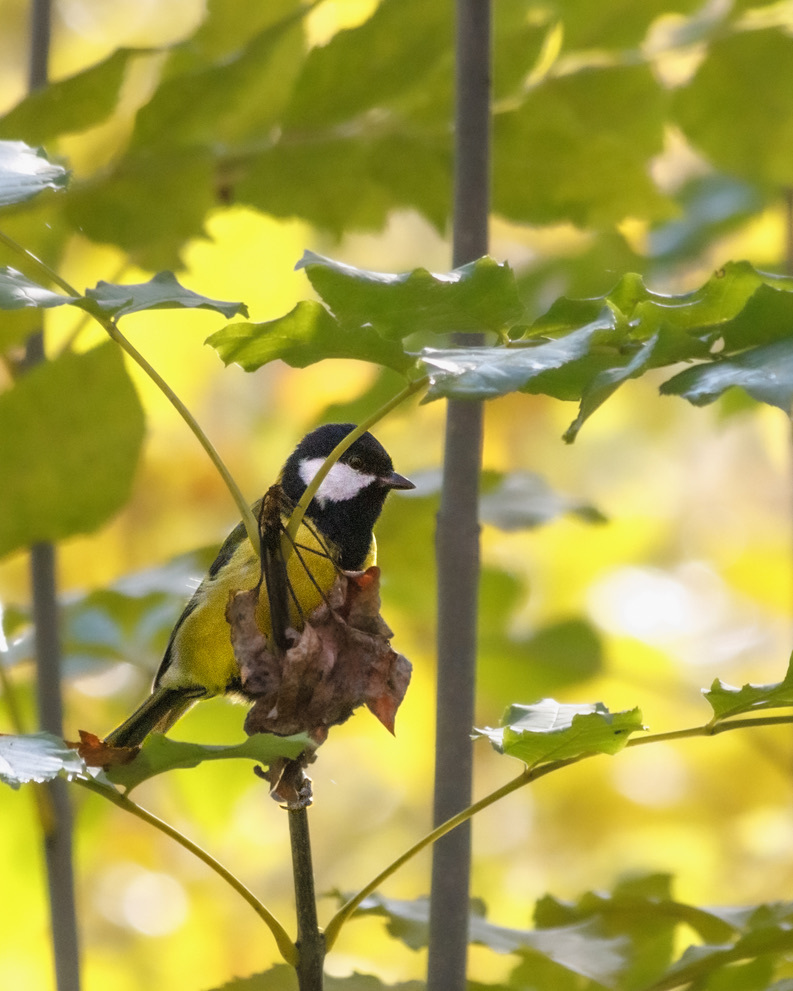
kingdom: Animalia
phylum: Chordata
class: Aves
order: Passeriformes
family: Paridae
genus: Parus
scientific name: Parus major
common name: Great tit
